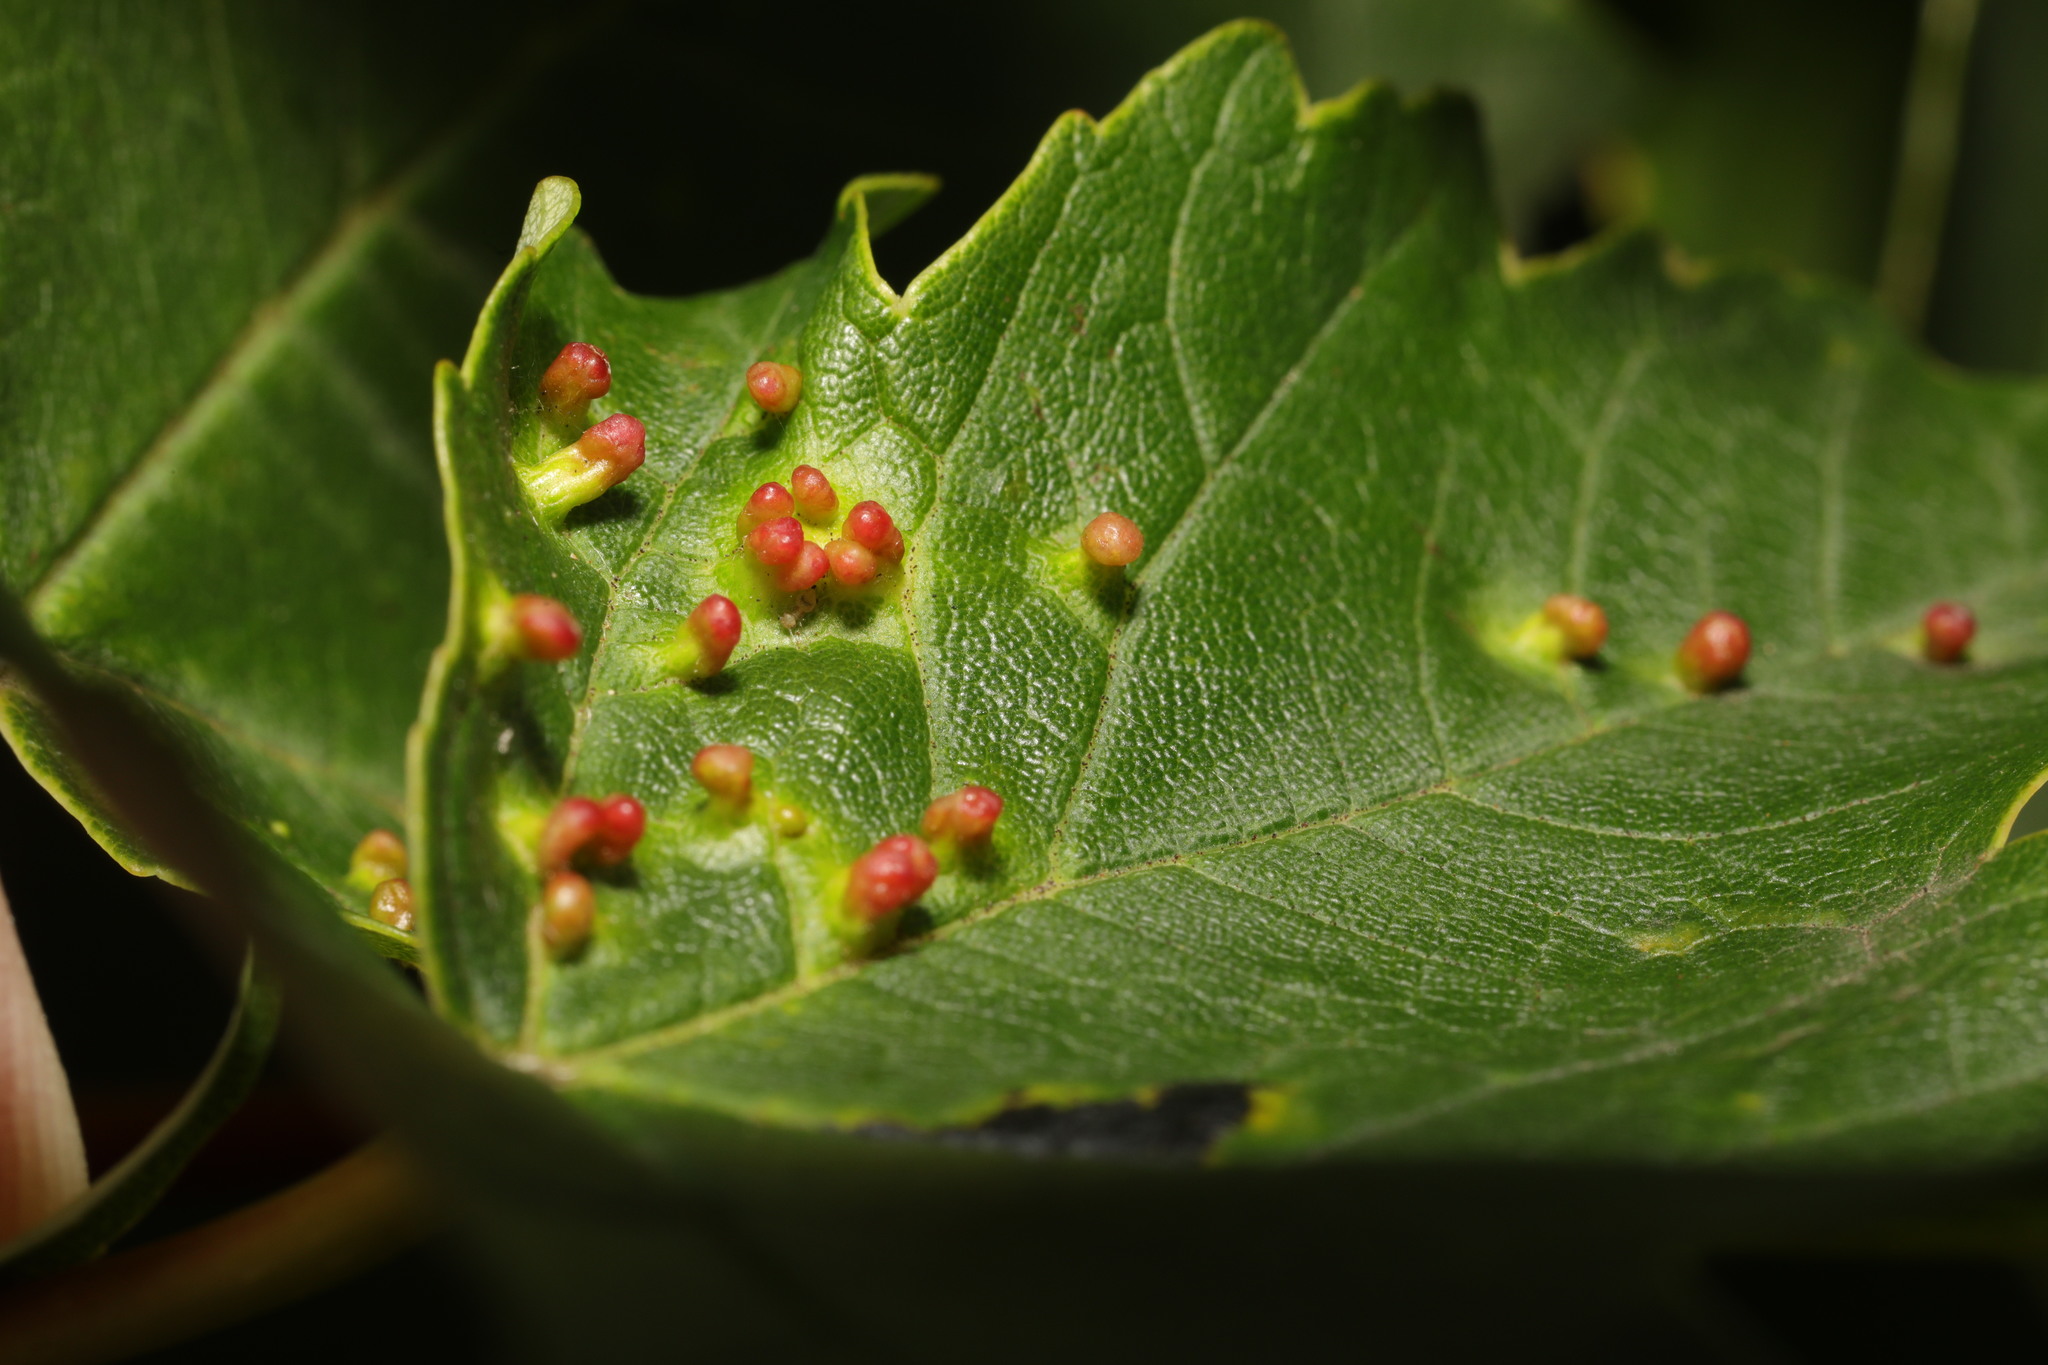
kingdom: Animalia
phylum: Arthropoda
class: Arachnida
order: Trombidiformes
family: Eriophyidae
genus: Aceria
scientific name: Aceria macrorhynchus
